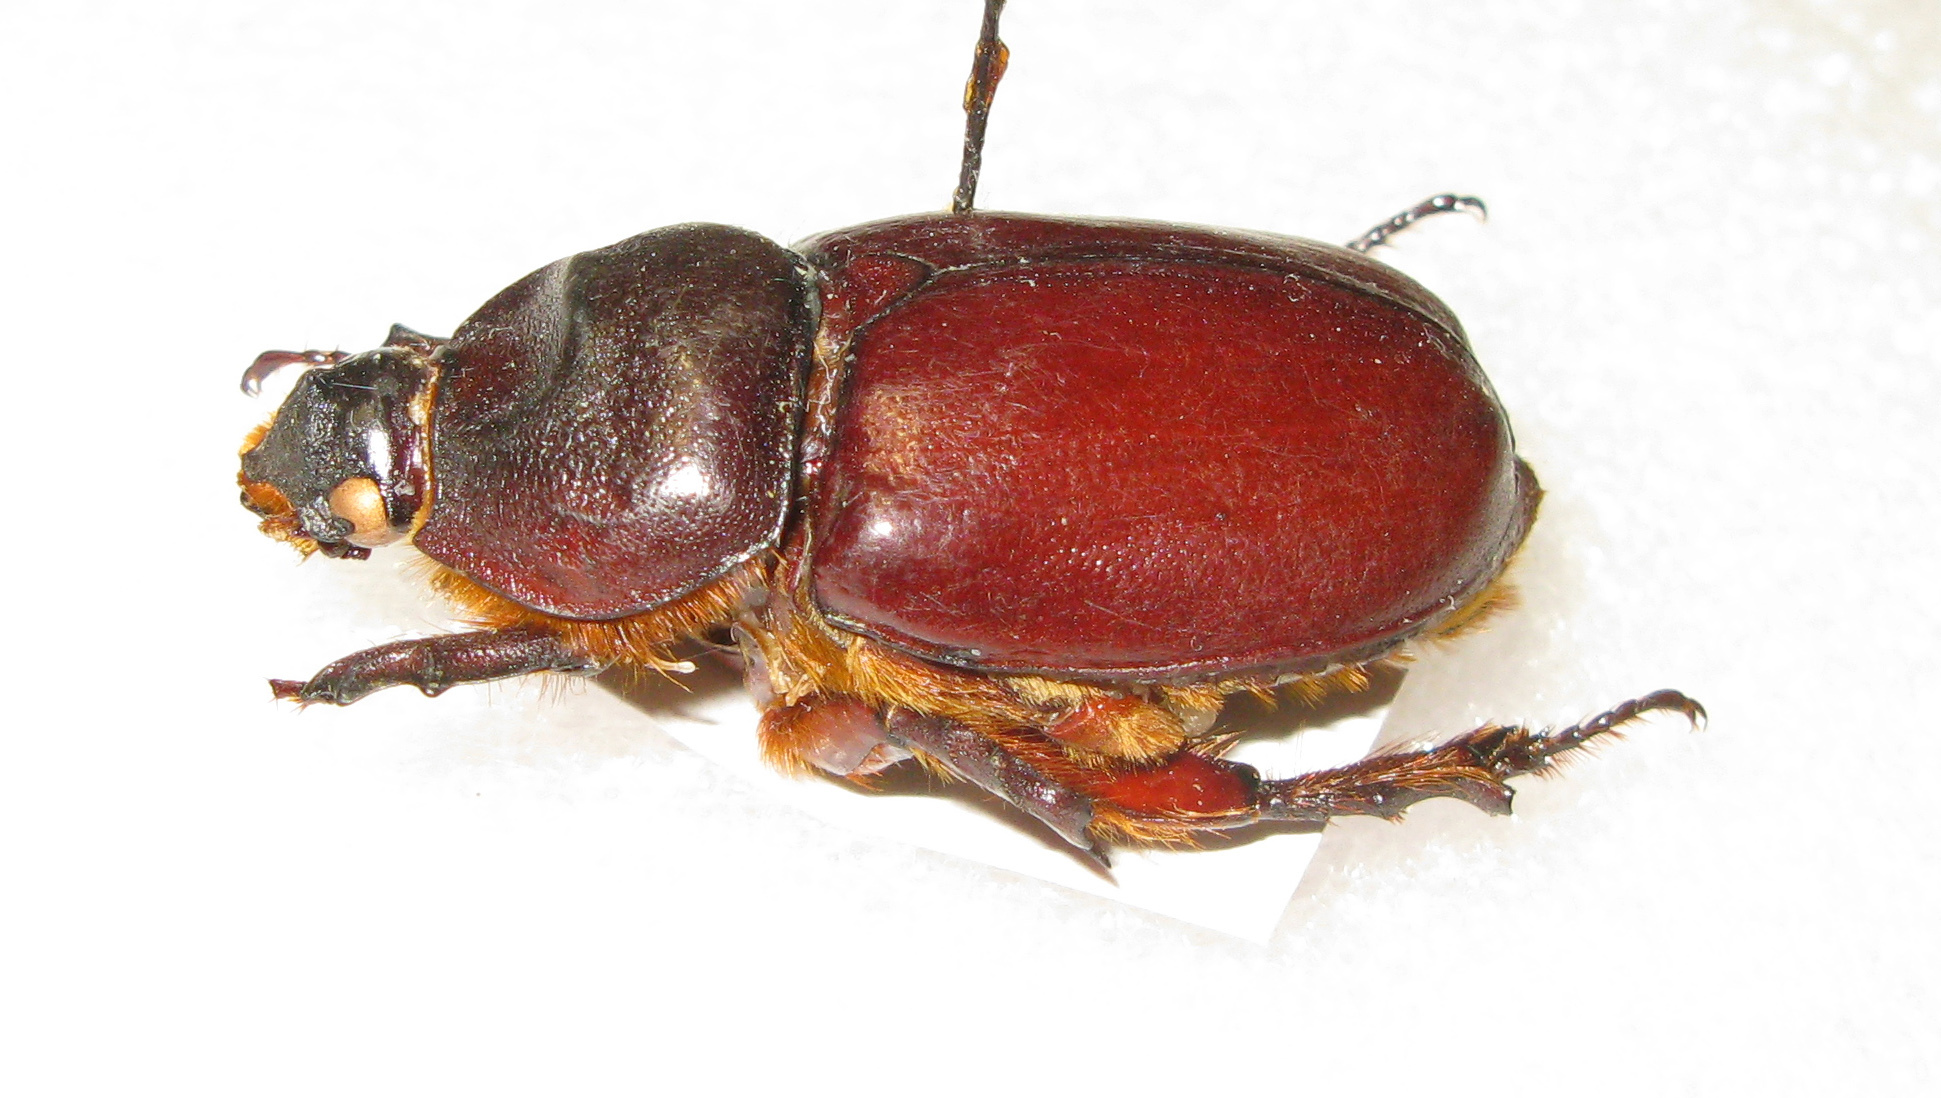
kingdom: Animalia
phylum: Arthropoda
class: Insecta
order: Coleoptera
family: Scarabaeidae
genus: Oryctes
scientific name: Oryctes nasicornis
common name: European rhinoceros beetle
